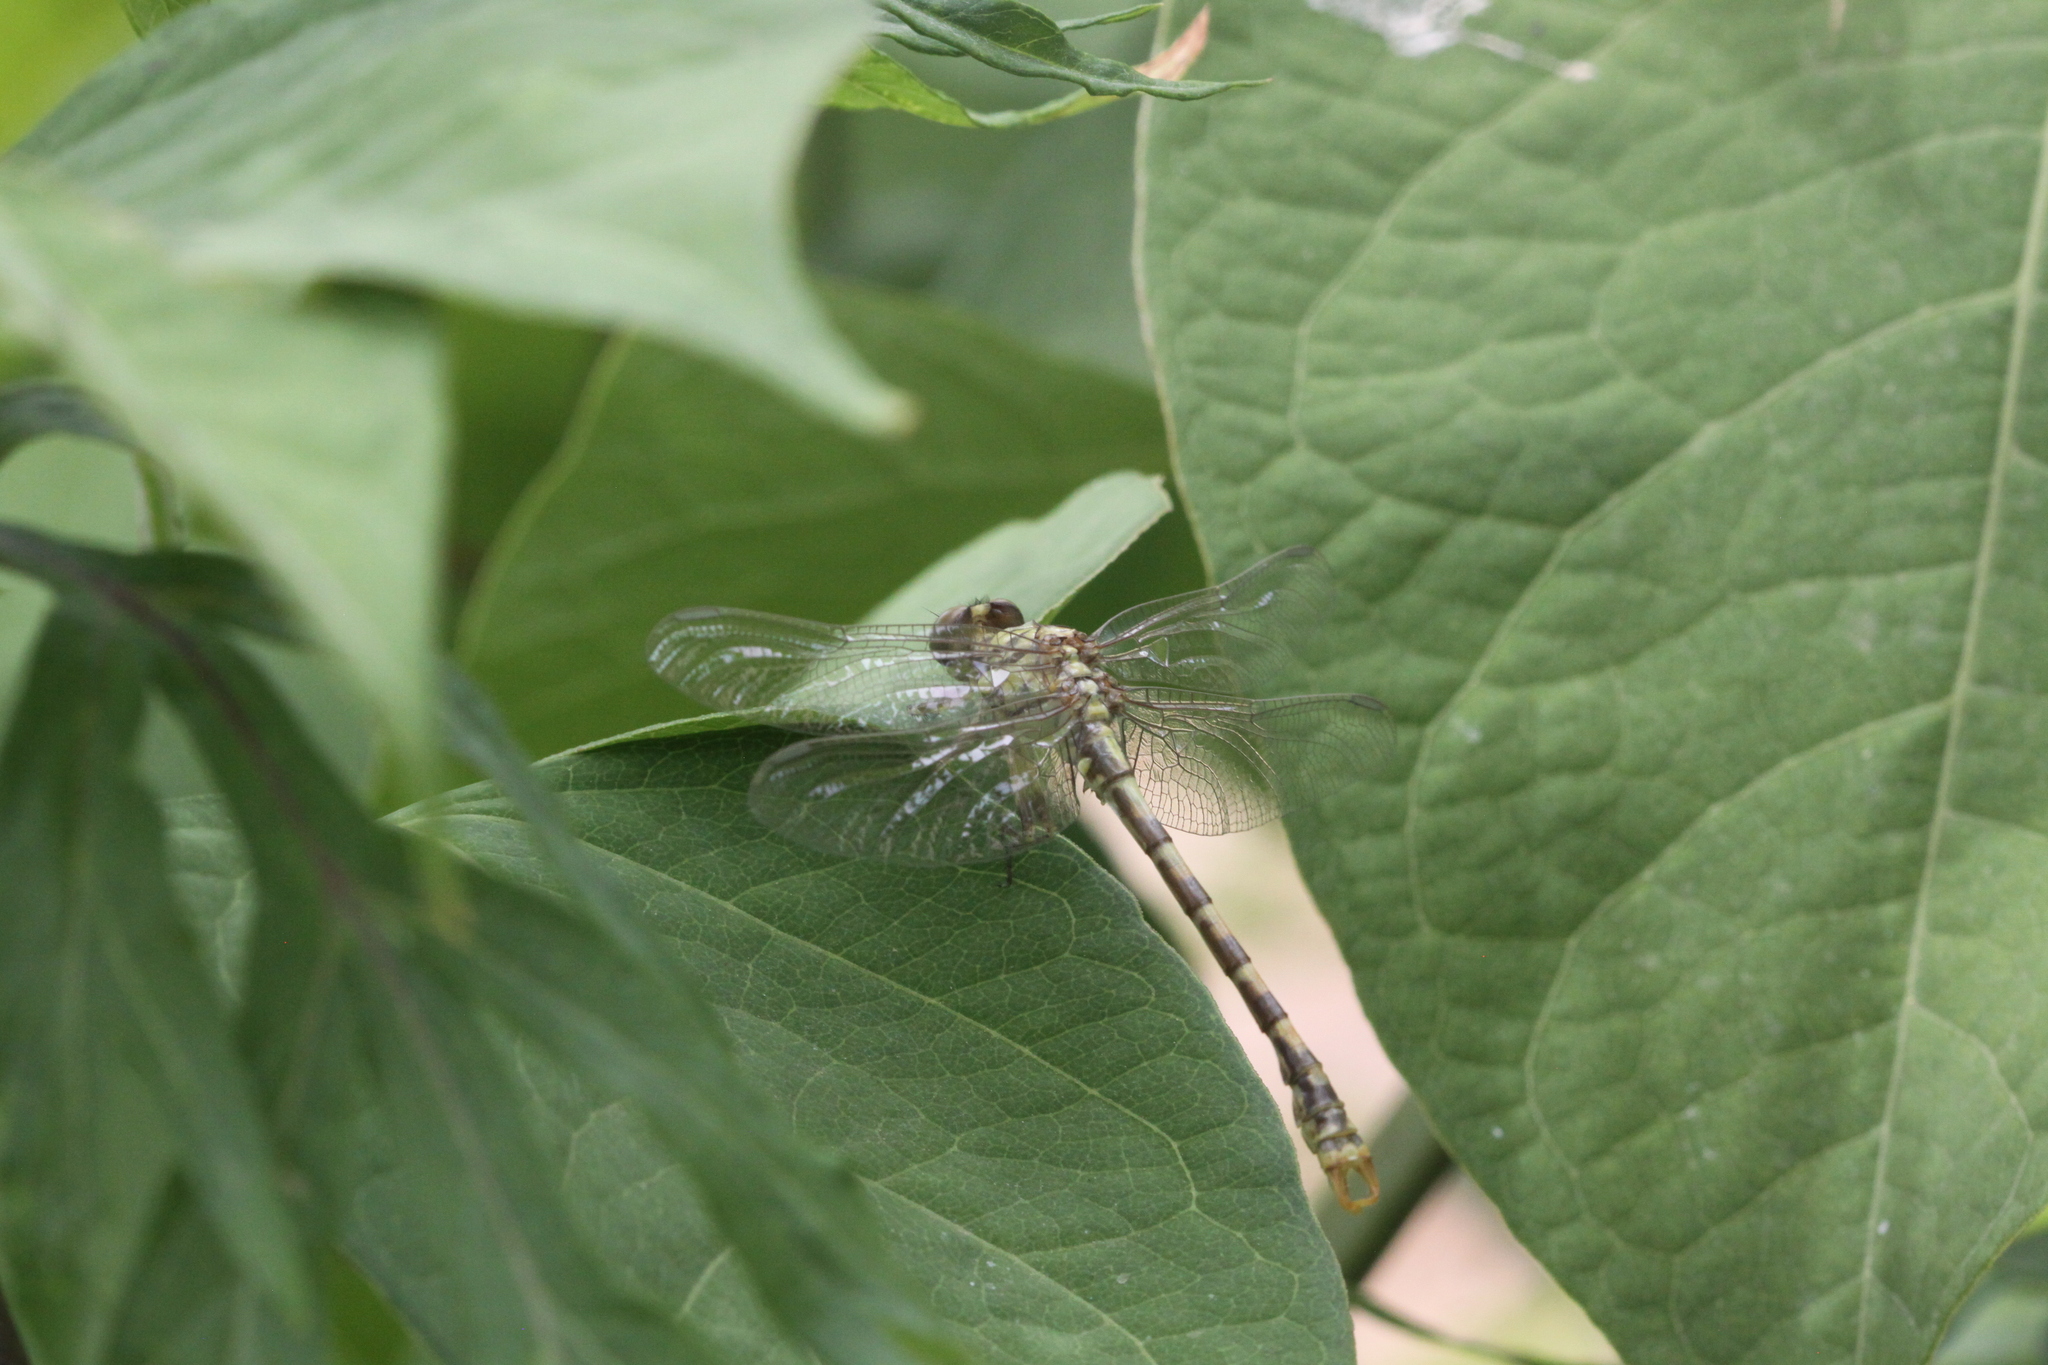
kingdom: Animalia
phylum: Arthropoda
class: Insecta
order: Odonata
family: Gomphidae
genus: Onychogomphus
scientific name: Onychogomphus forcipatus
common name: Small pincertail
